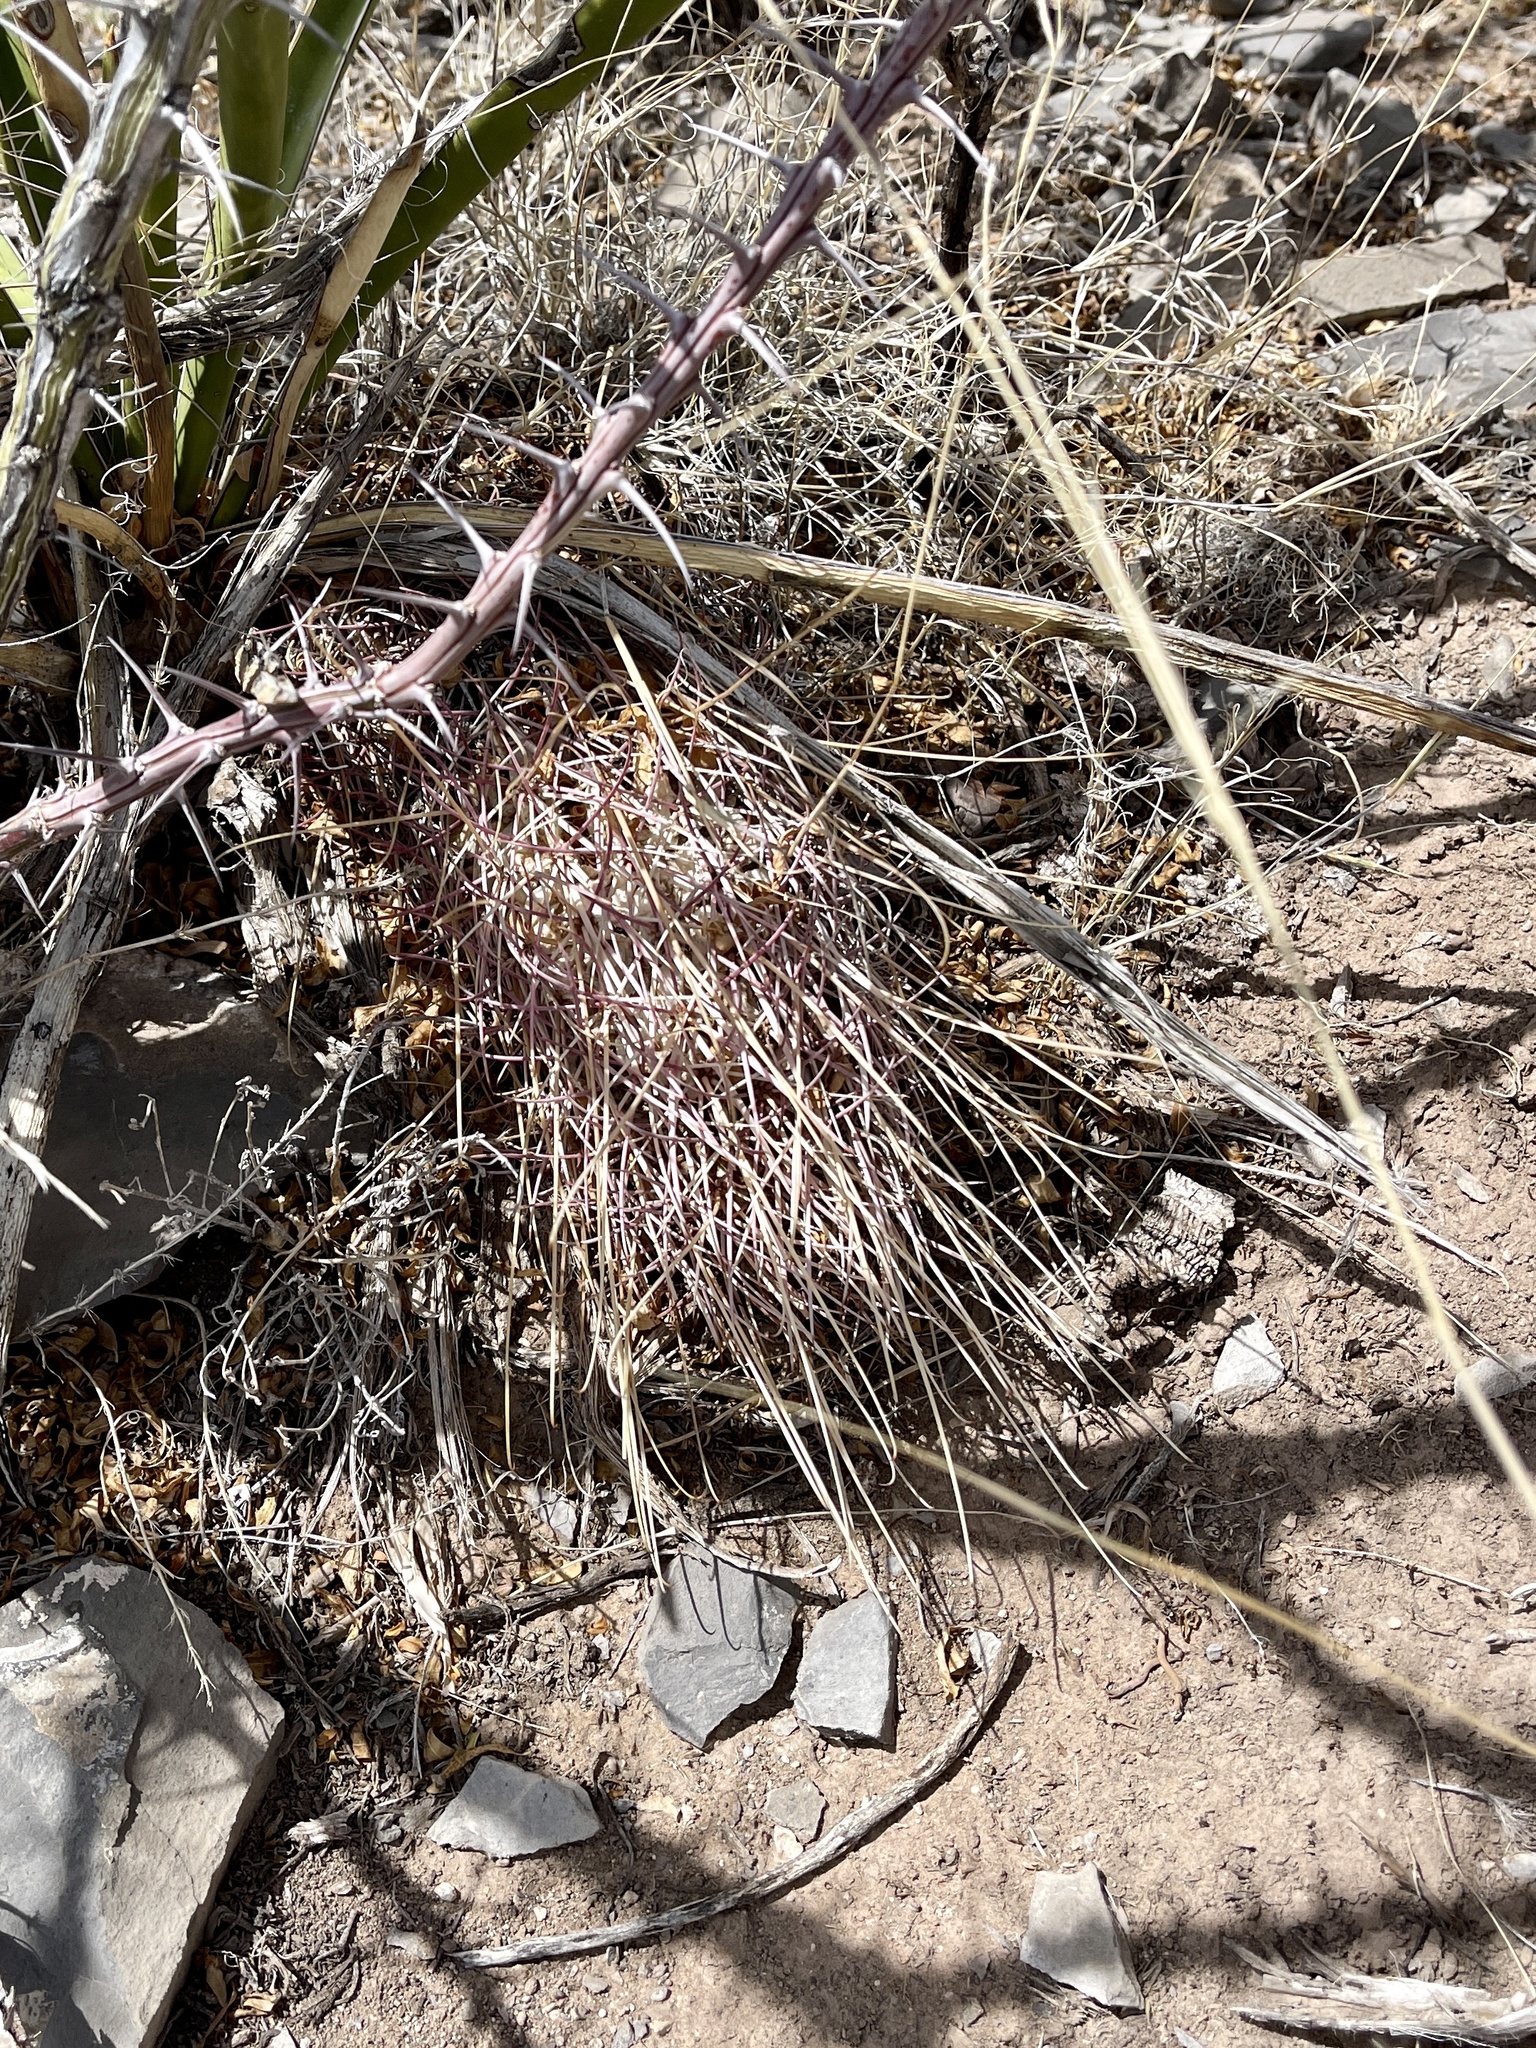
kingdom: Plantae
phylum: Tracheophyta
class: Magnoliopsida
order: Caryophyllales
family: Cactaceae
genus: Ferocactus
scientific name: Ferocactus uncinatus
